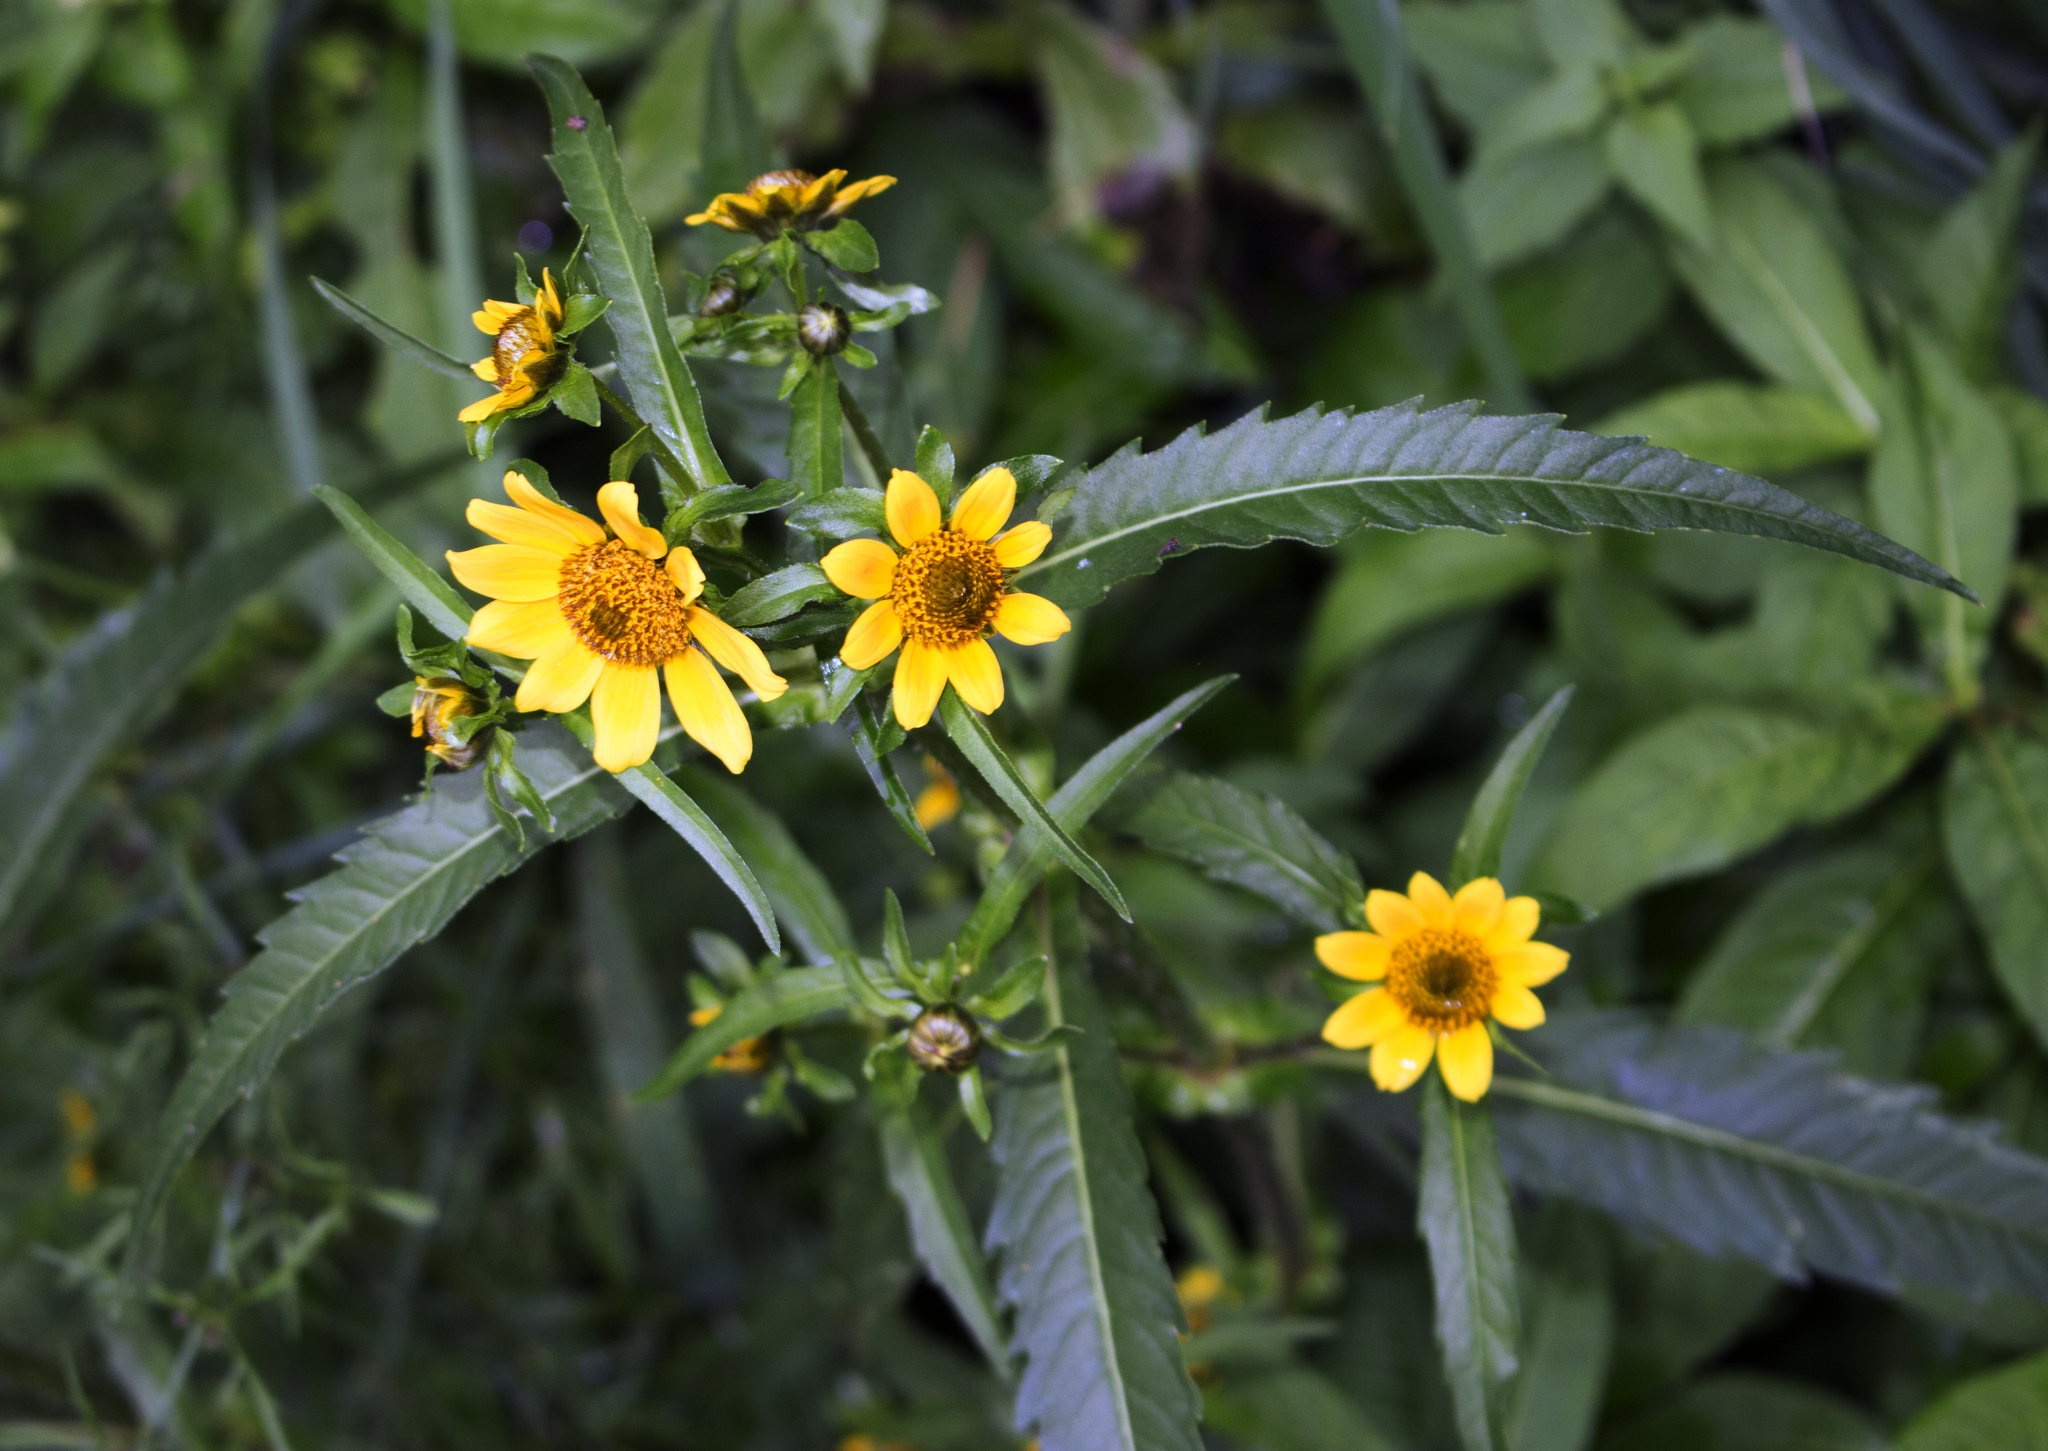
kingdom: Plantae
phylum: Tracheophyta
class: Magnoliopsida
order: Asterales
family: Asteraceae
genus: Bidens
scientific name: Bidens cernua
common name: Nodding bur-marigold
